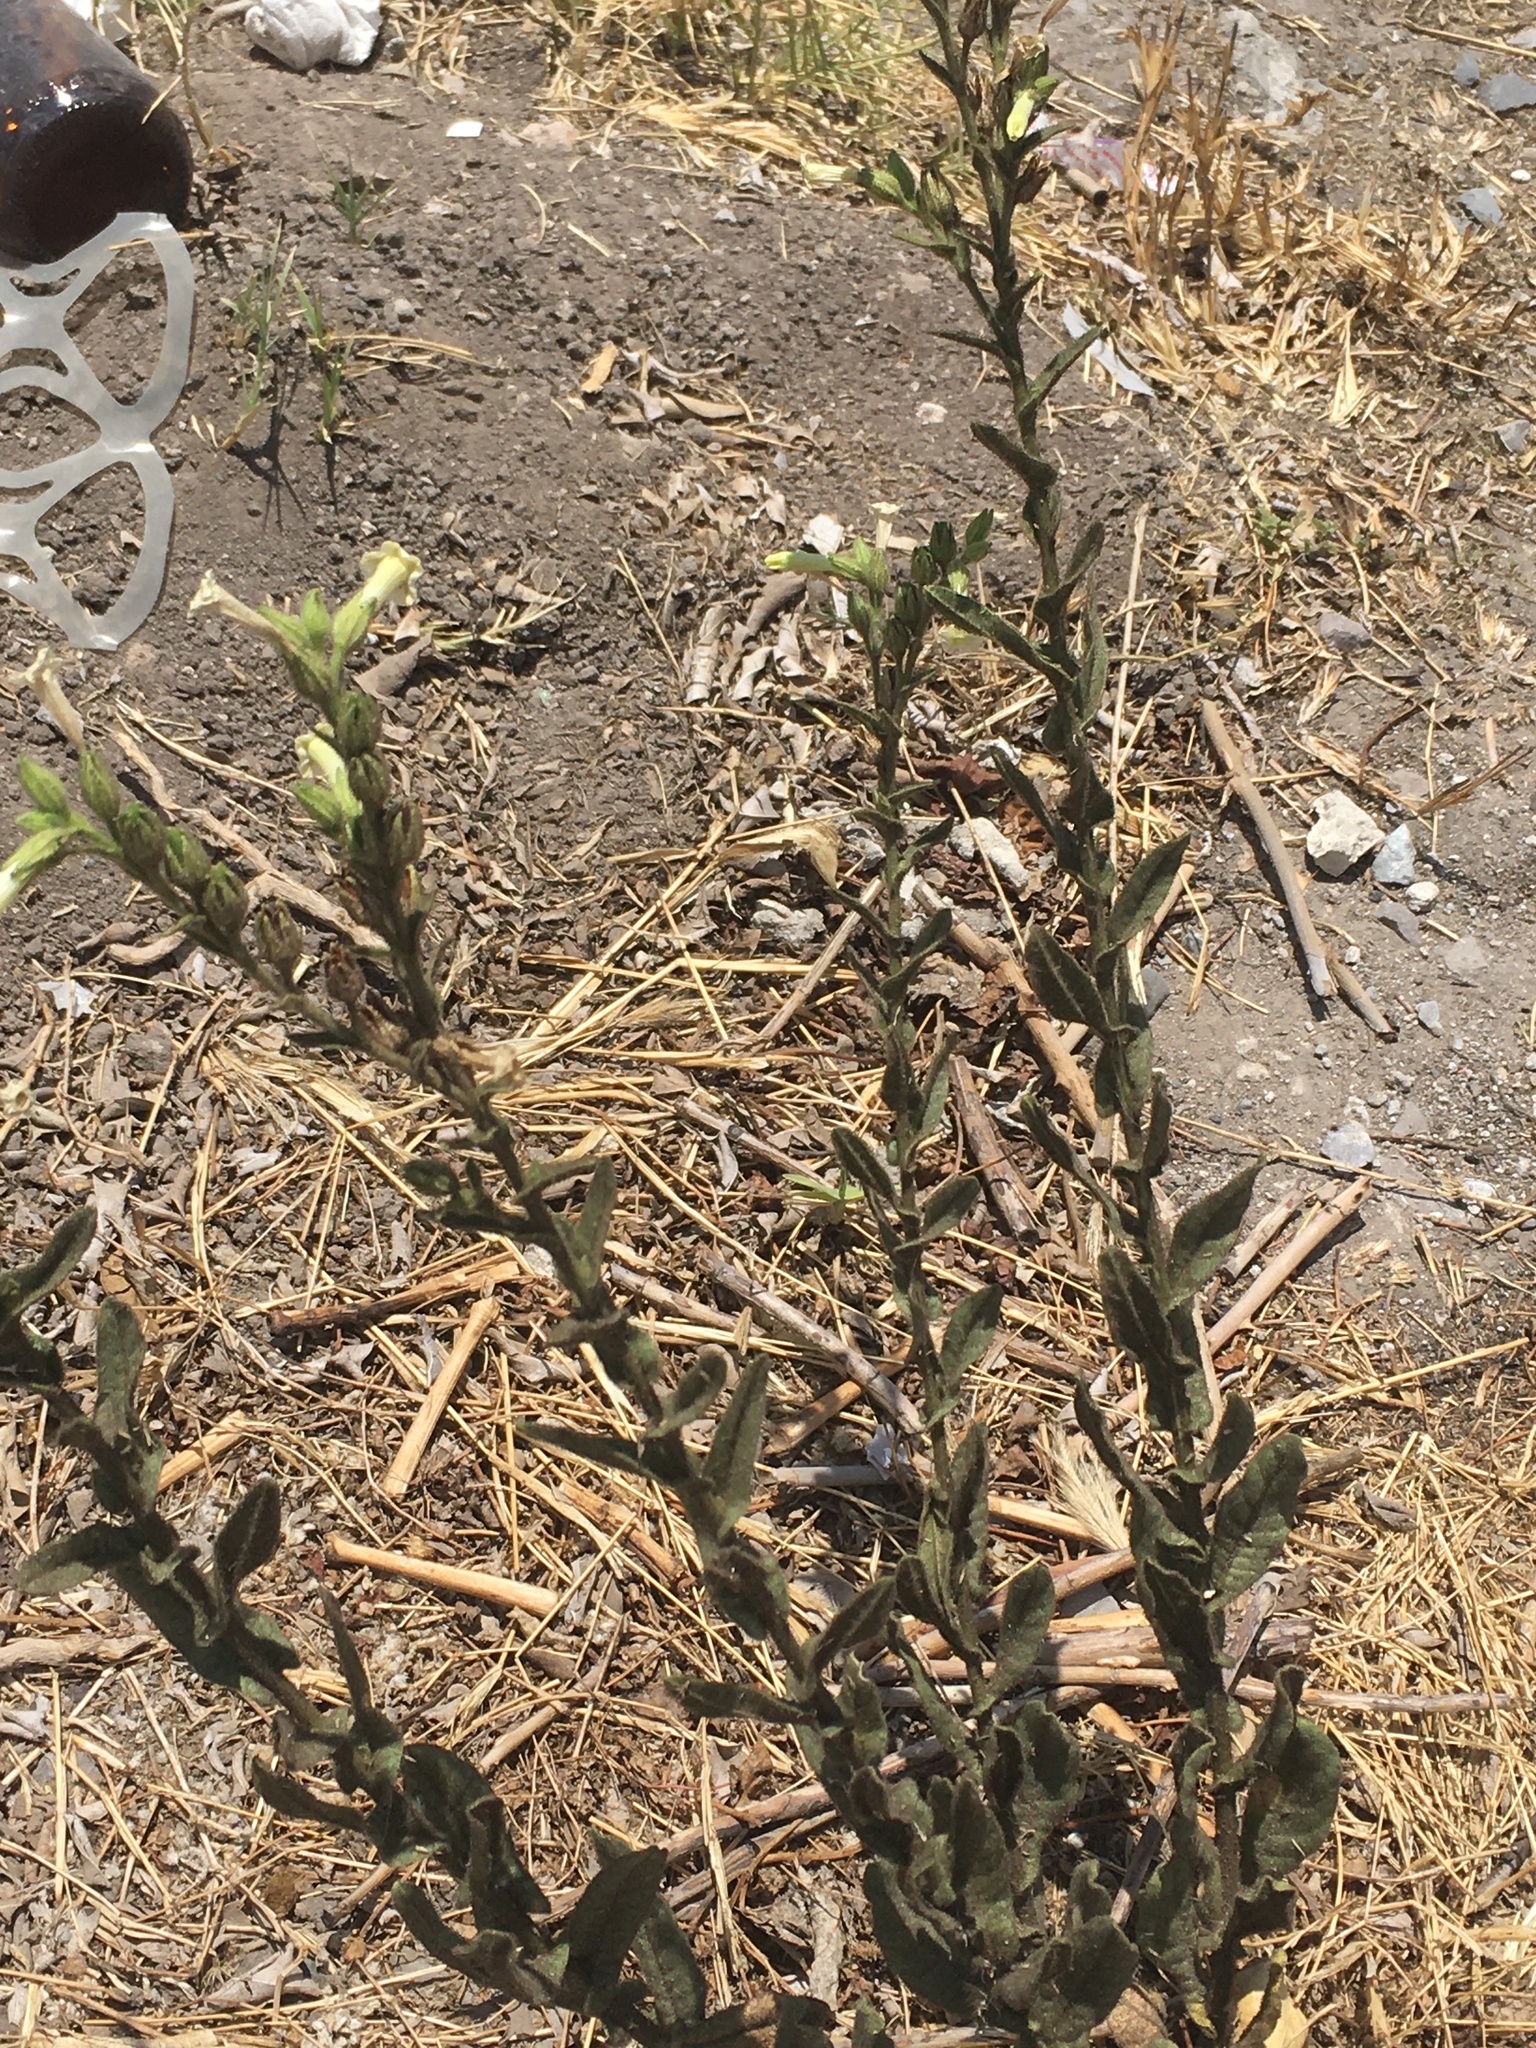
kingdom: Plantae
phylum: Tracheophyta
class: Magnoliopsida
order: Solanales
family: Solanaceae
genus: Nicotiana
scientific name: Nicotiana obtusifolia
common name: Desert tobacco
